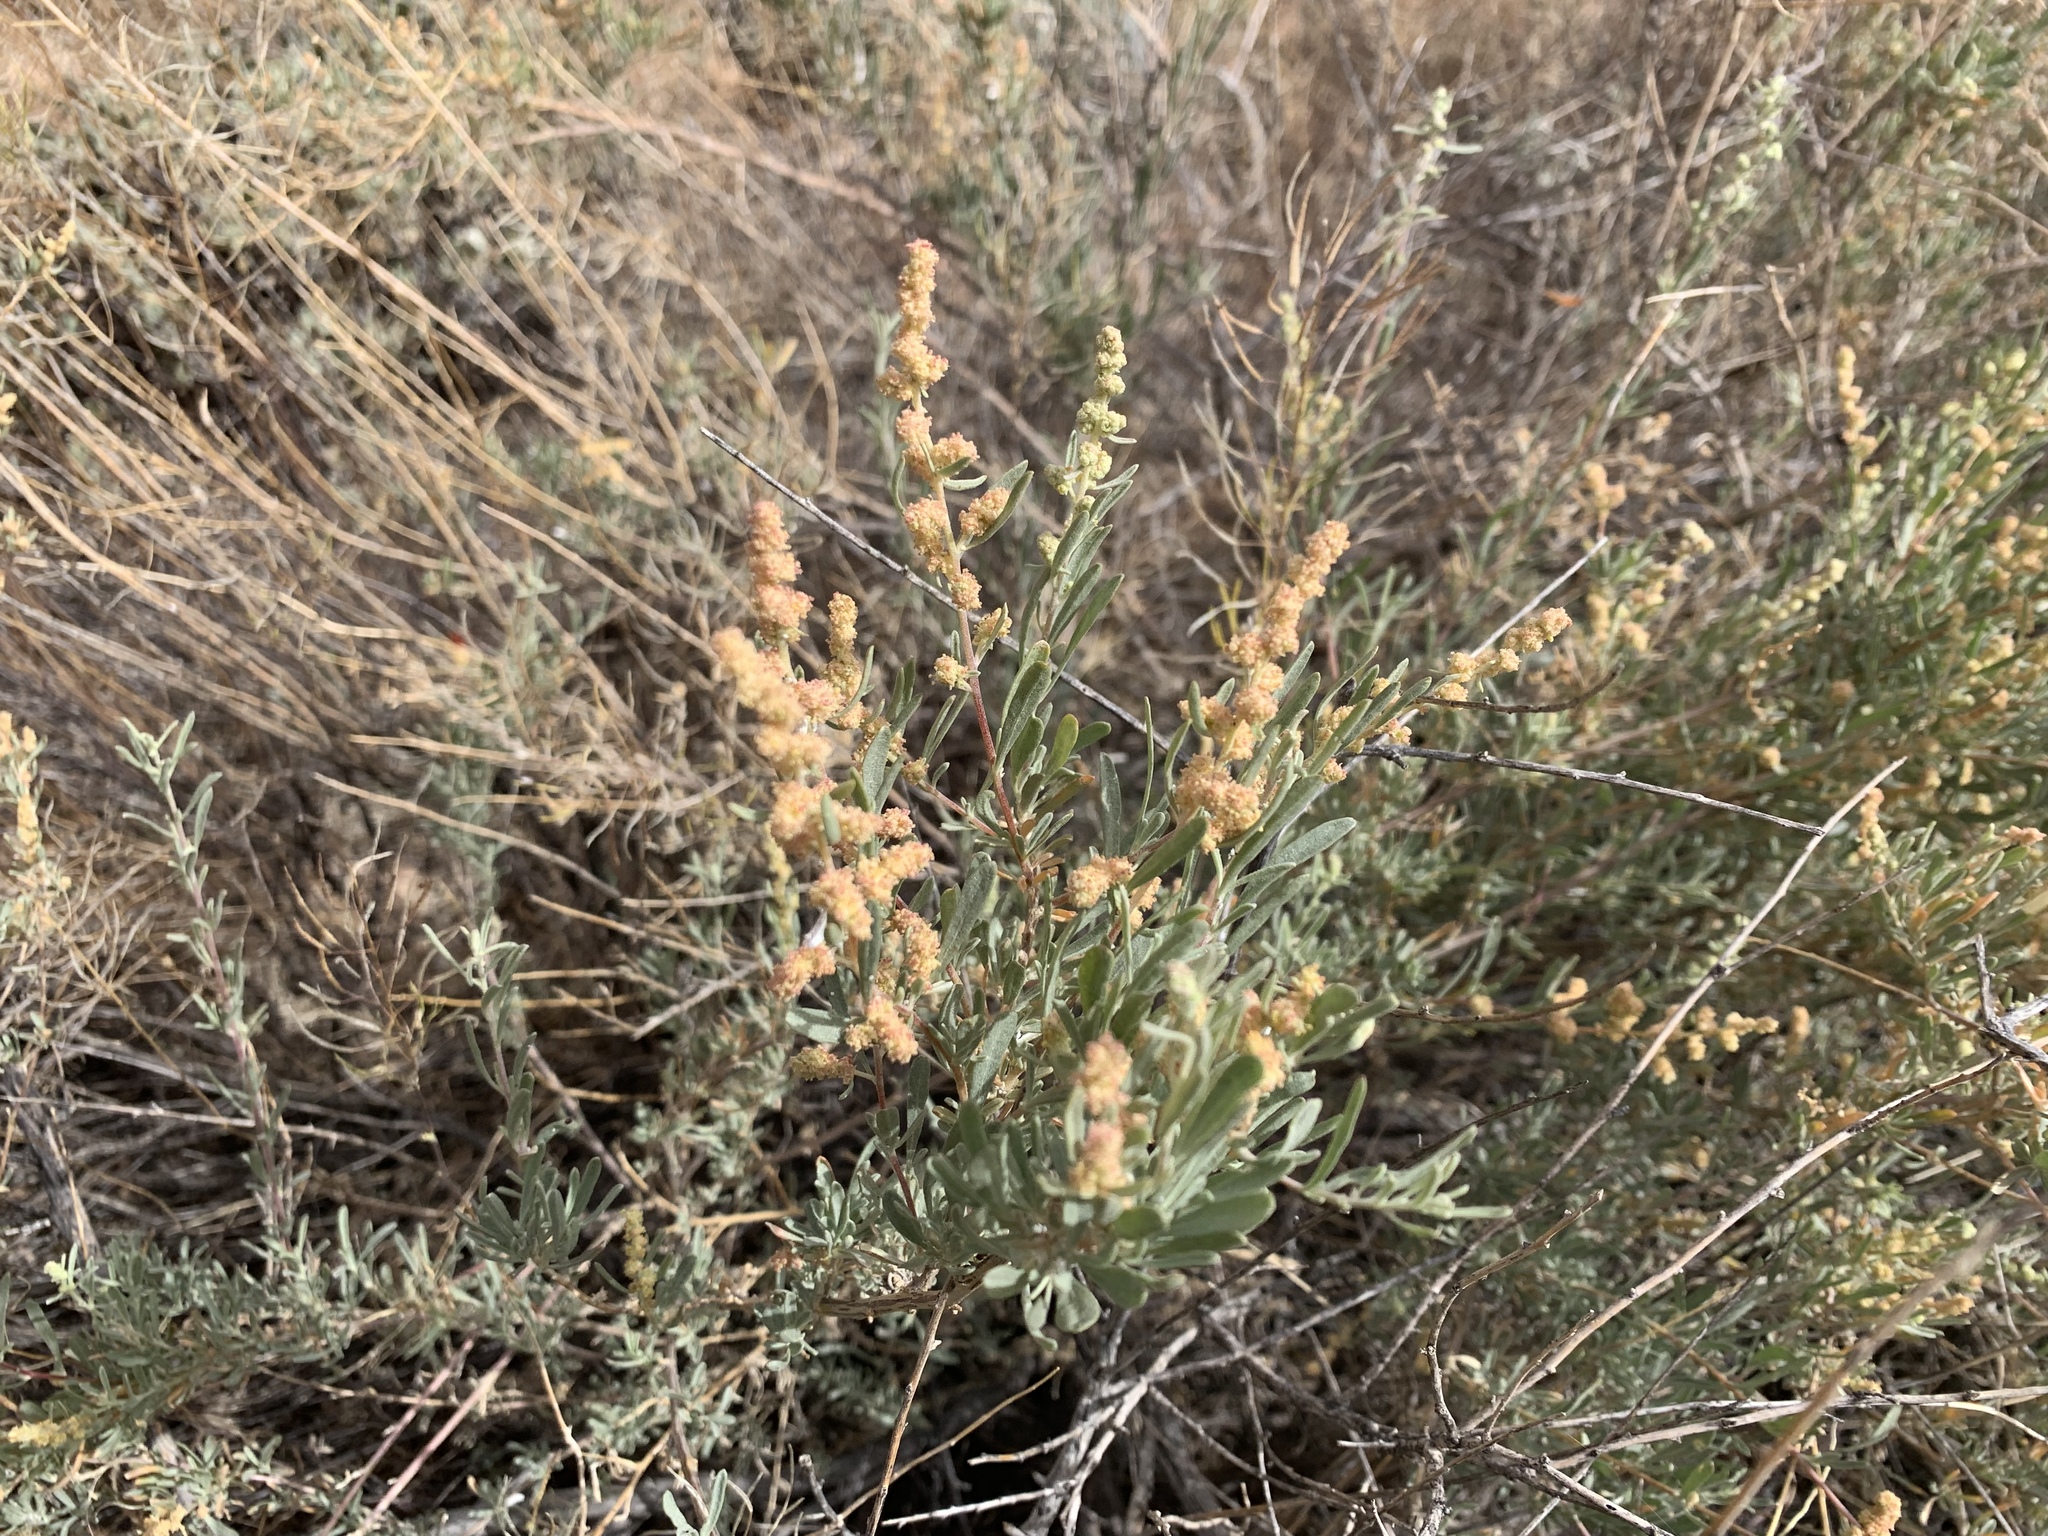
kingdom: Plantae
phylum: Tracheophyta
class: Magnoliopsida
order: Caryophyllales
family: Amaranthaceae
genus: Atriplex
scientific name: Atriplex canescens
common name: Four-wing saltbush
